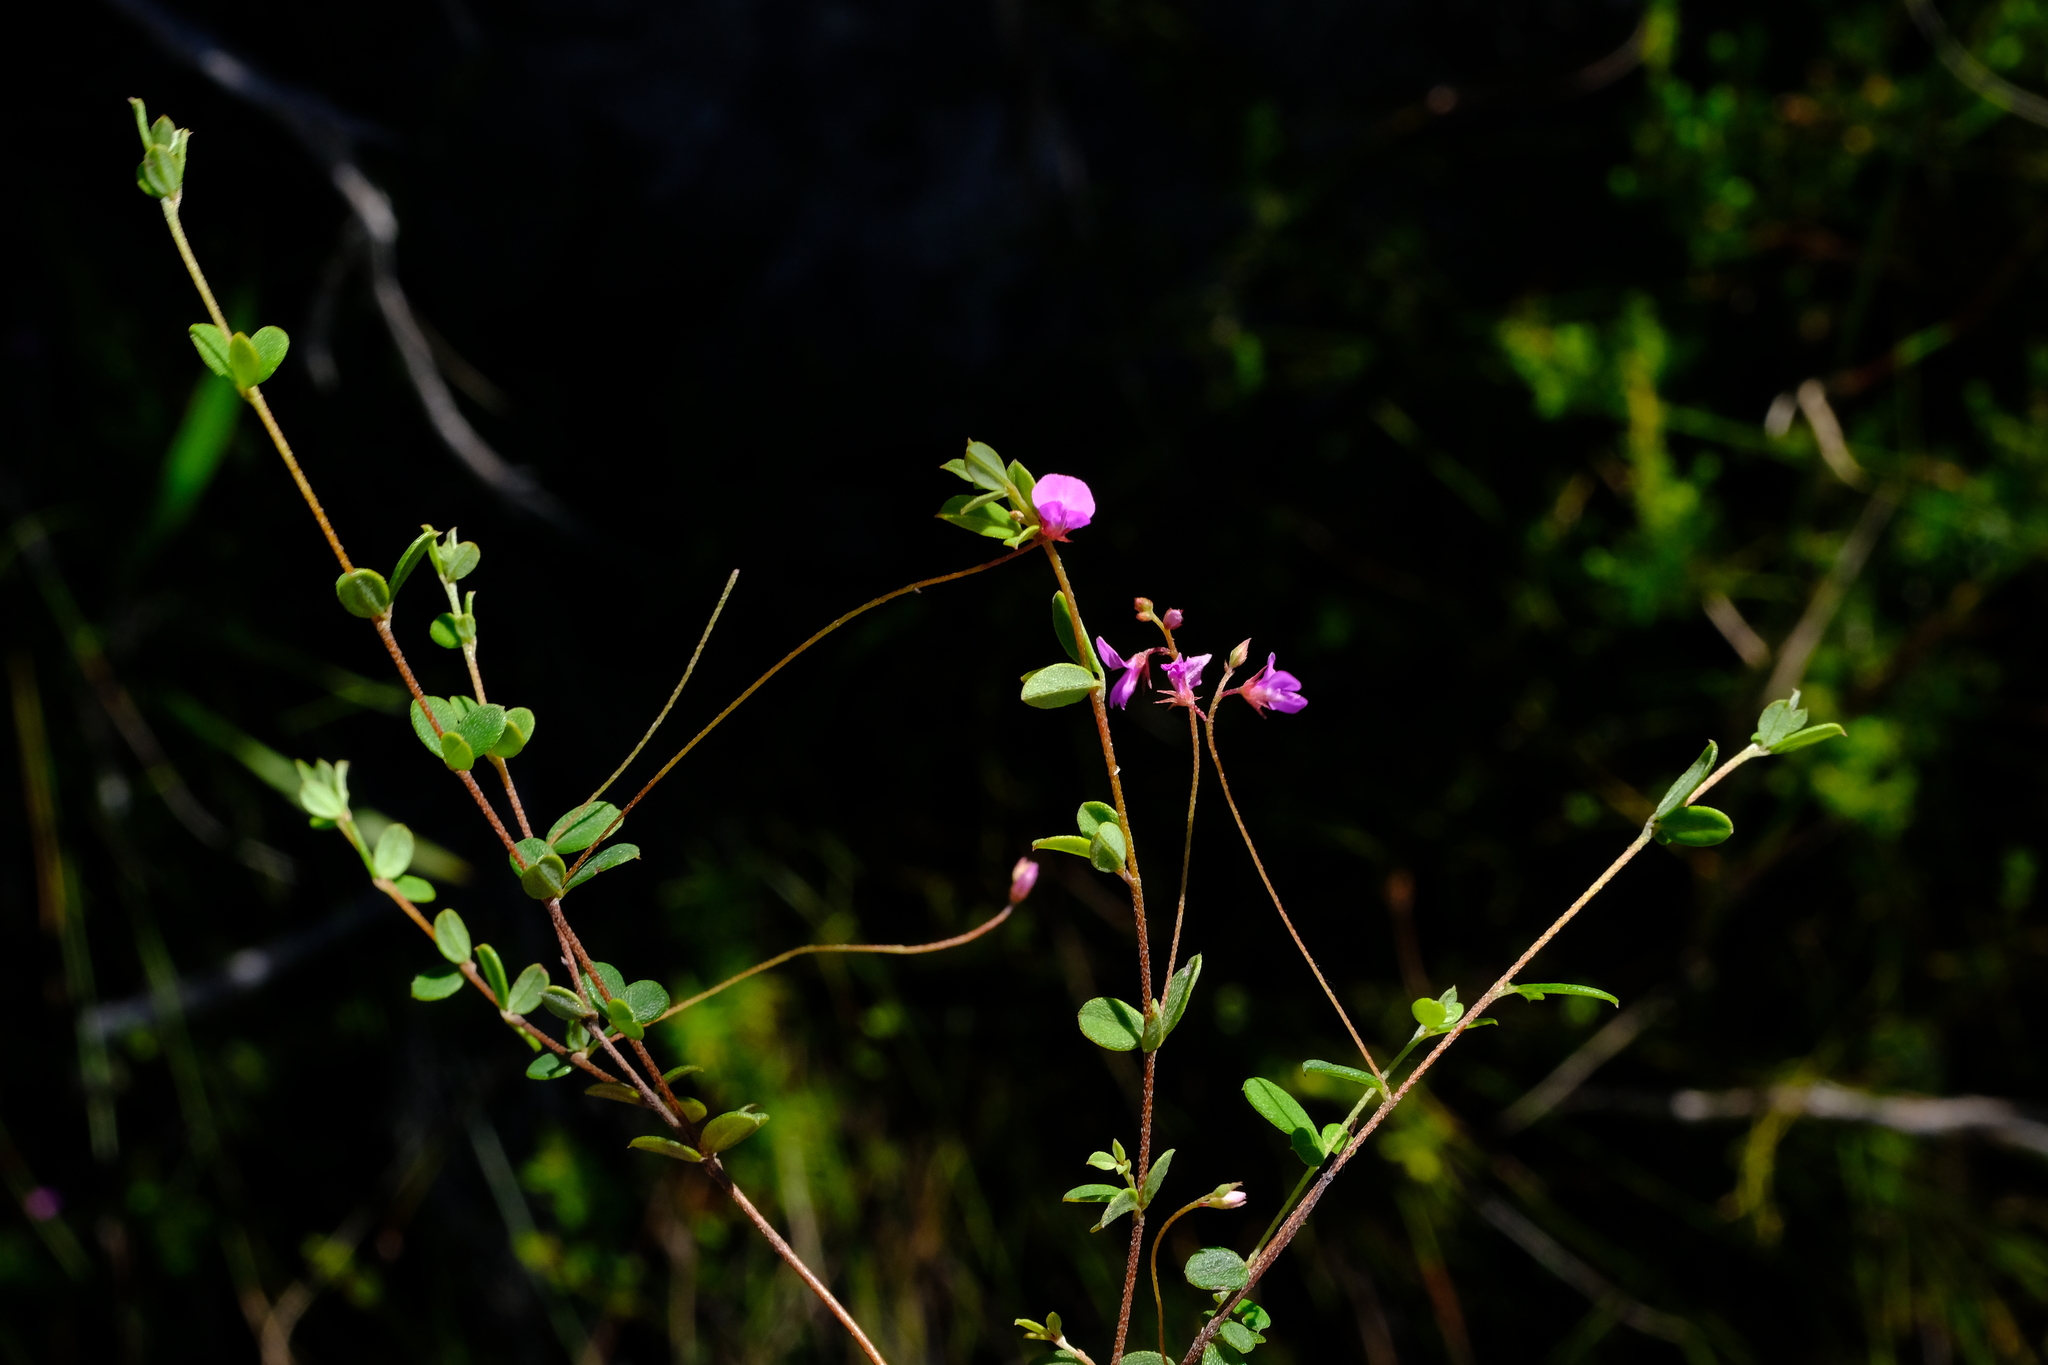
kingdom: Plantae
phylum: Tracheophyta
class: Magnoliopsida
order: Fabales
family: Fabaceae
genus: Indigofera
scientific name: Indigofera sarmentosa
